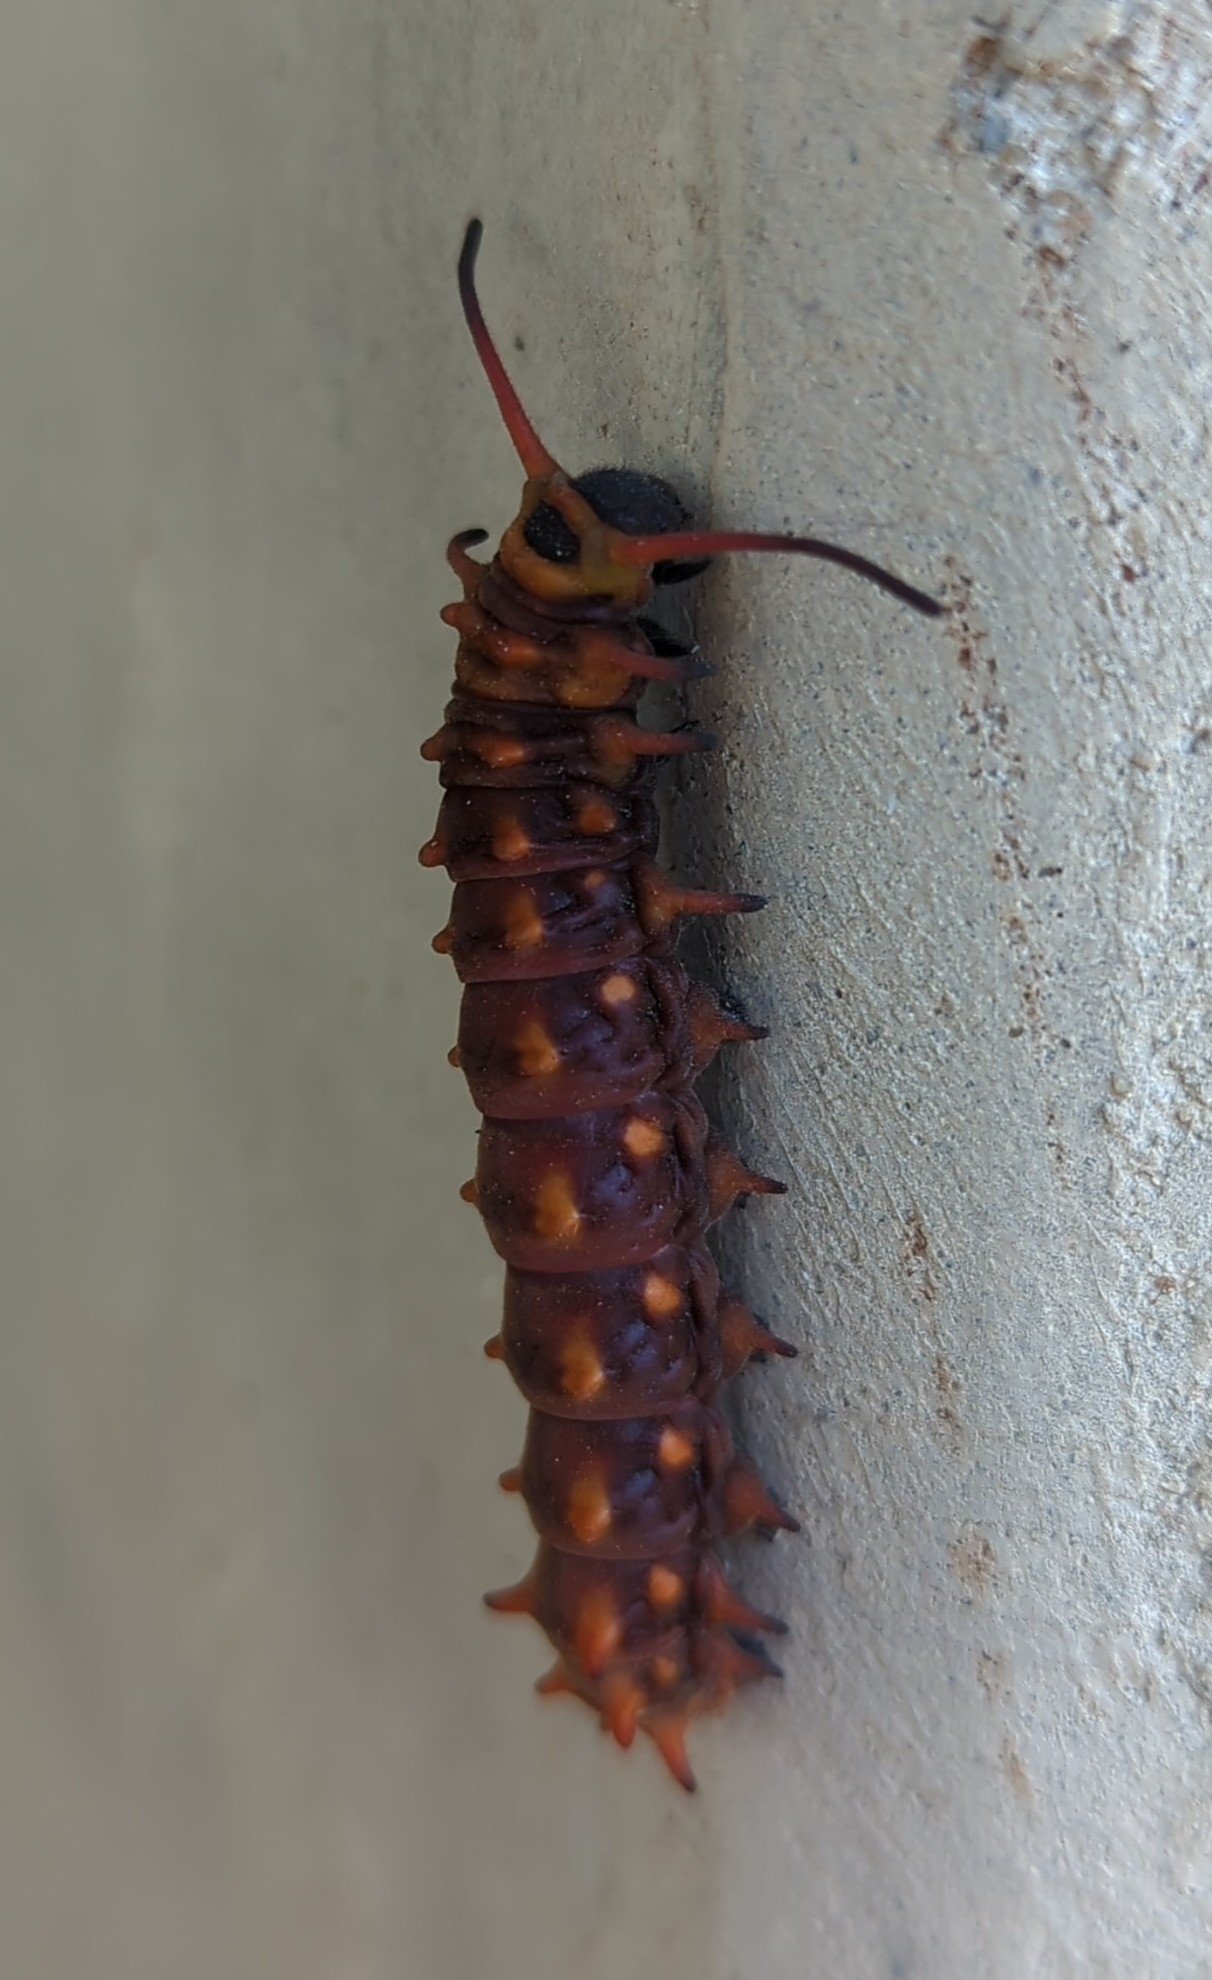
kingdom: Animalia
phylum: Arthropoda
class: Insecta
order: Lepidoptera
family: Papilionidae
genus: Battus
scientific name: Battus philenor
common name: Pipevine swallowtail
